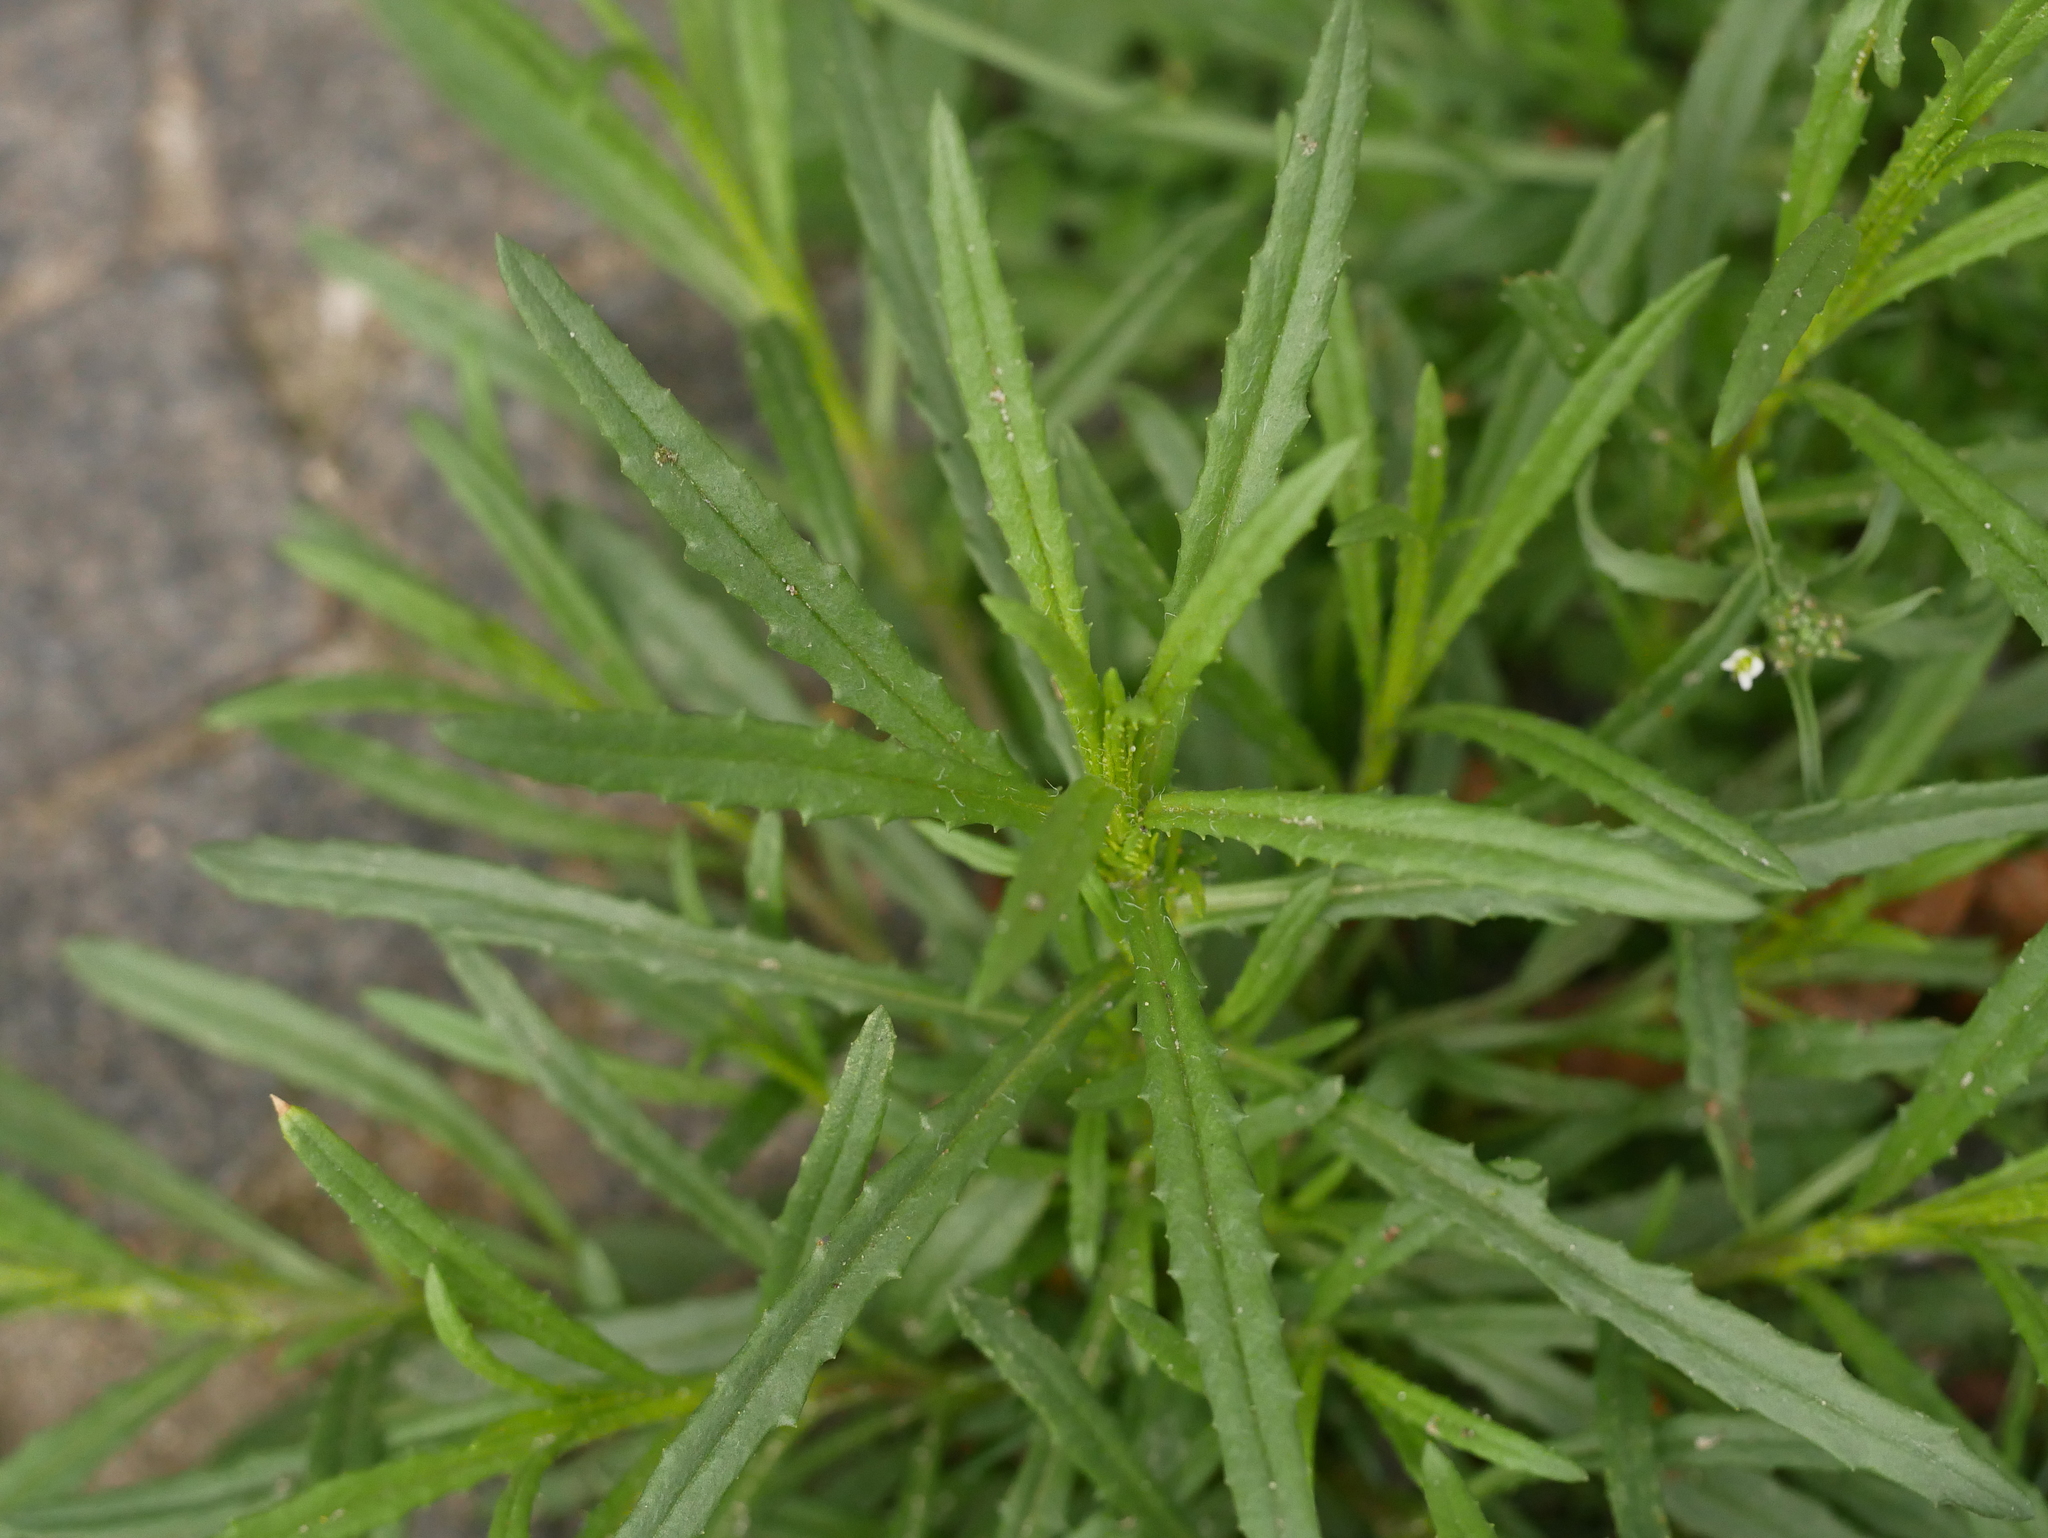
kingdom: Plantae
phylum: Tracheophyta
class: Magnoliopsida
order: Asterales
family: Asteraceae
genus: Senecio
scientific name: Senecio inaequidens
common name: Narrow-leaved ragwort
